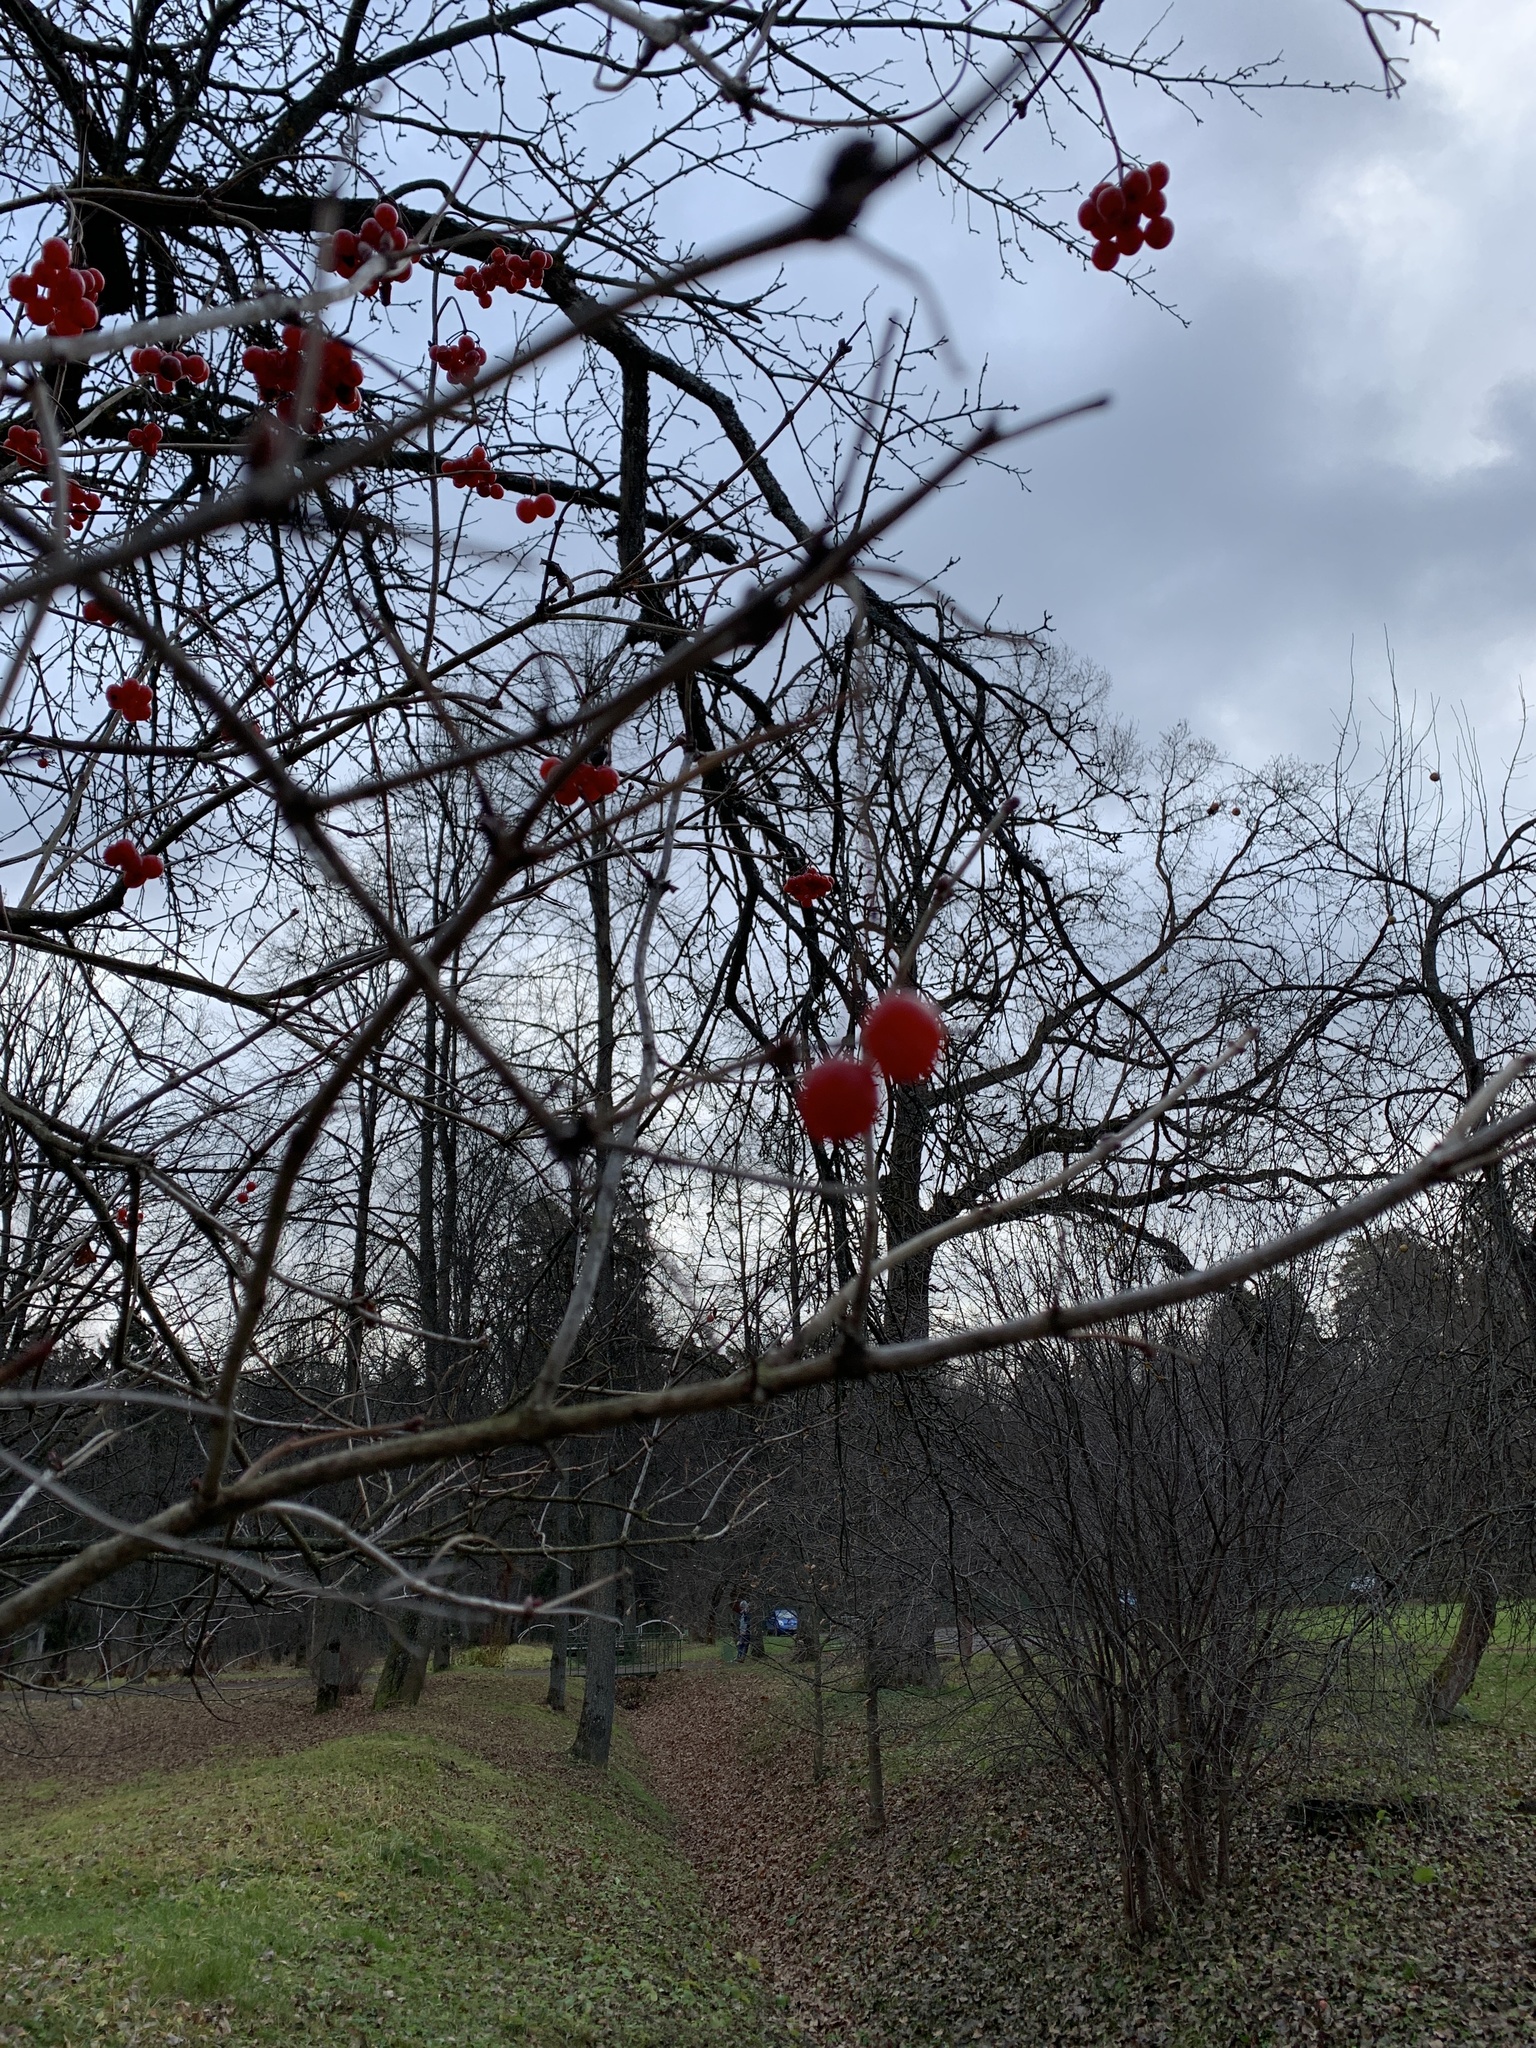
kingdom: Plantae
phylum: Tracheophyta
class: Magnoliopsida
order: Dipsacales
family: Viburnaceae
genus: Viburnum
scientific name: Viburnum opulus
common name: Guelder-rose
